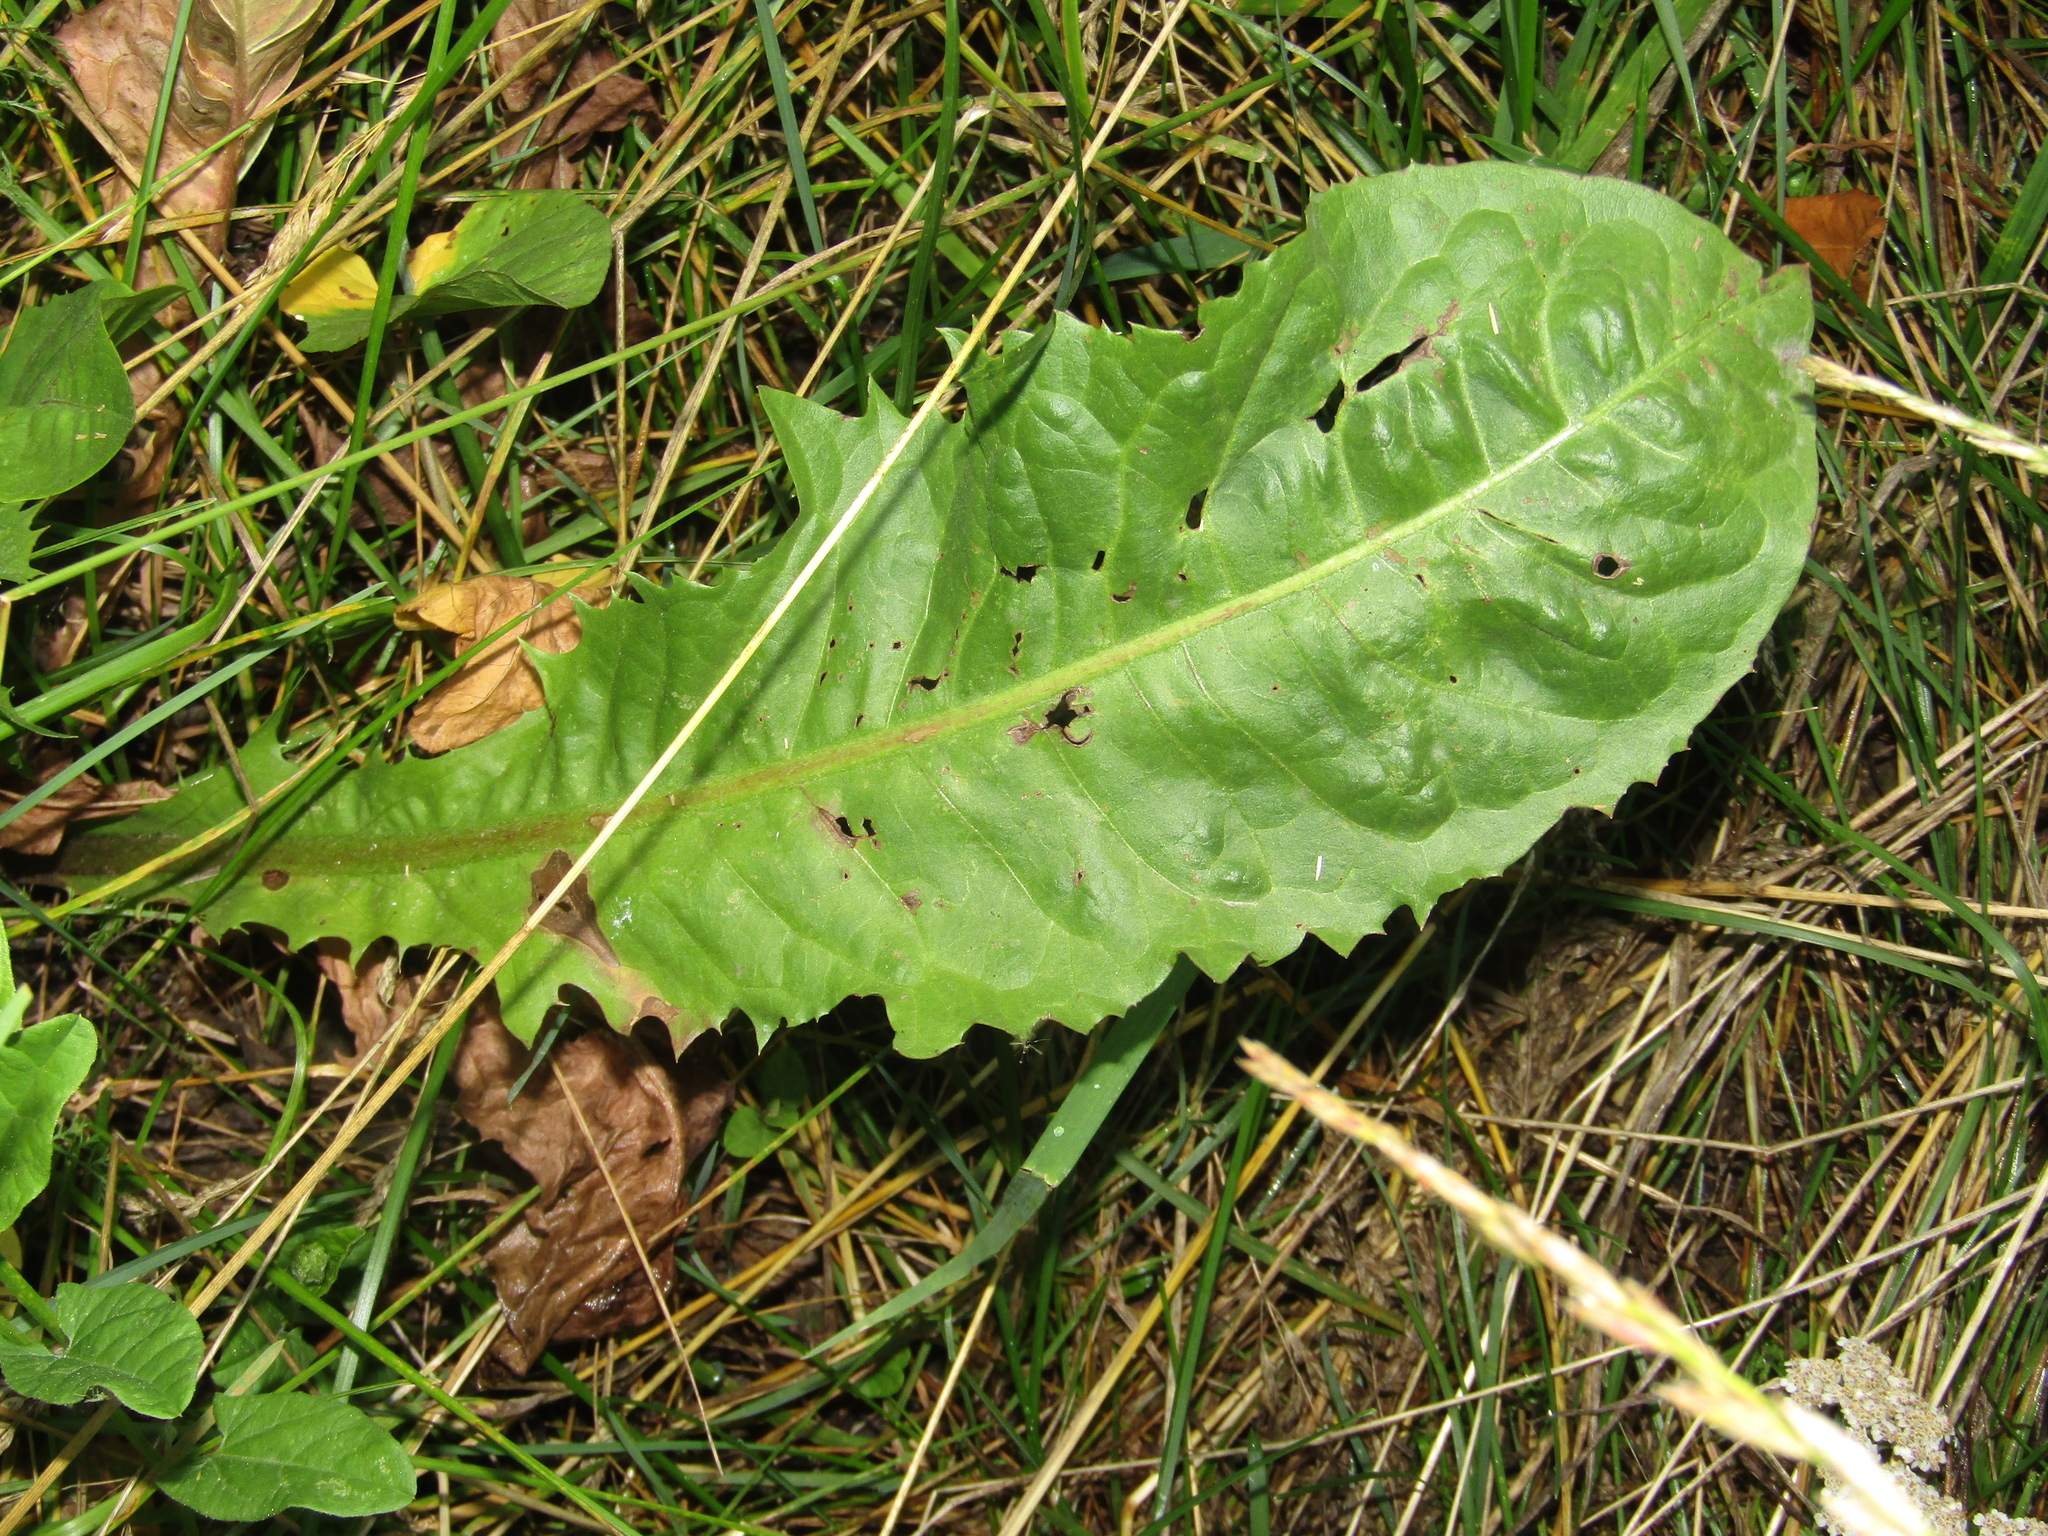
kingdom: Plantae
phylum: Tracheophyta
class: Magnoliopsida
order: Asterales
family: Asteraceae
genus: Taraxacum
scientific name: Taraxacum officinale
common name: Common dandelion
